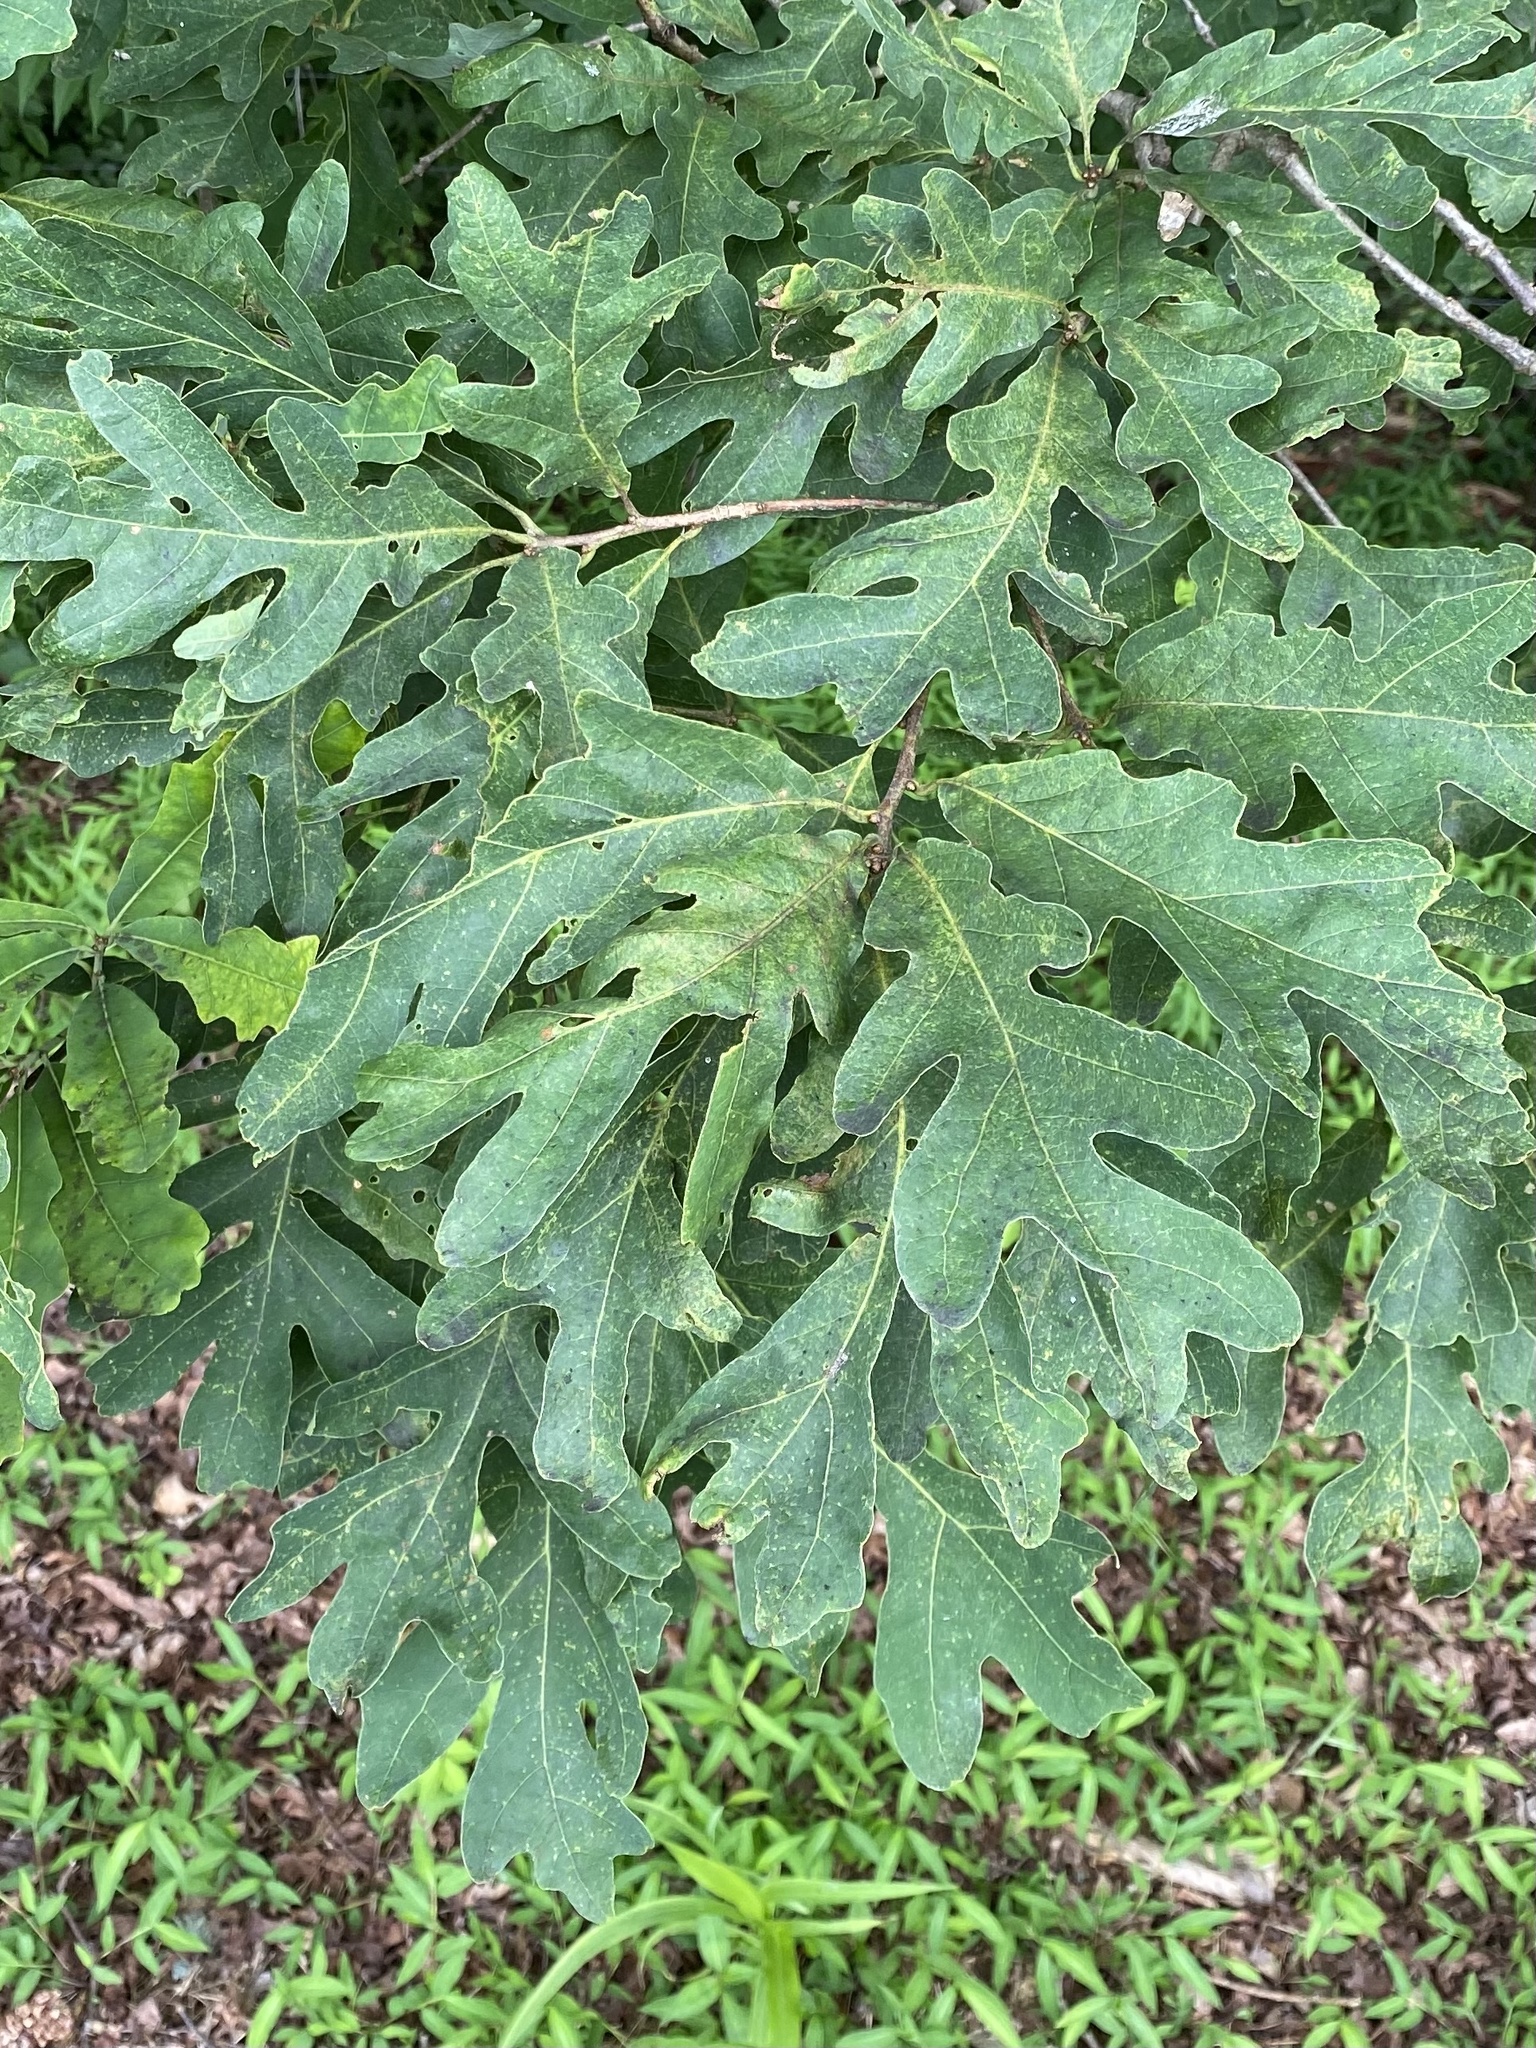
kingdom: Plantae
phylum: Tracheophyta
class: Magnoliopsida
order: Fagales
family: Fagaceae
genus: Quercus
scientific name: Quercus alba
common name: White oak
